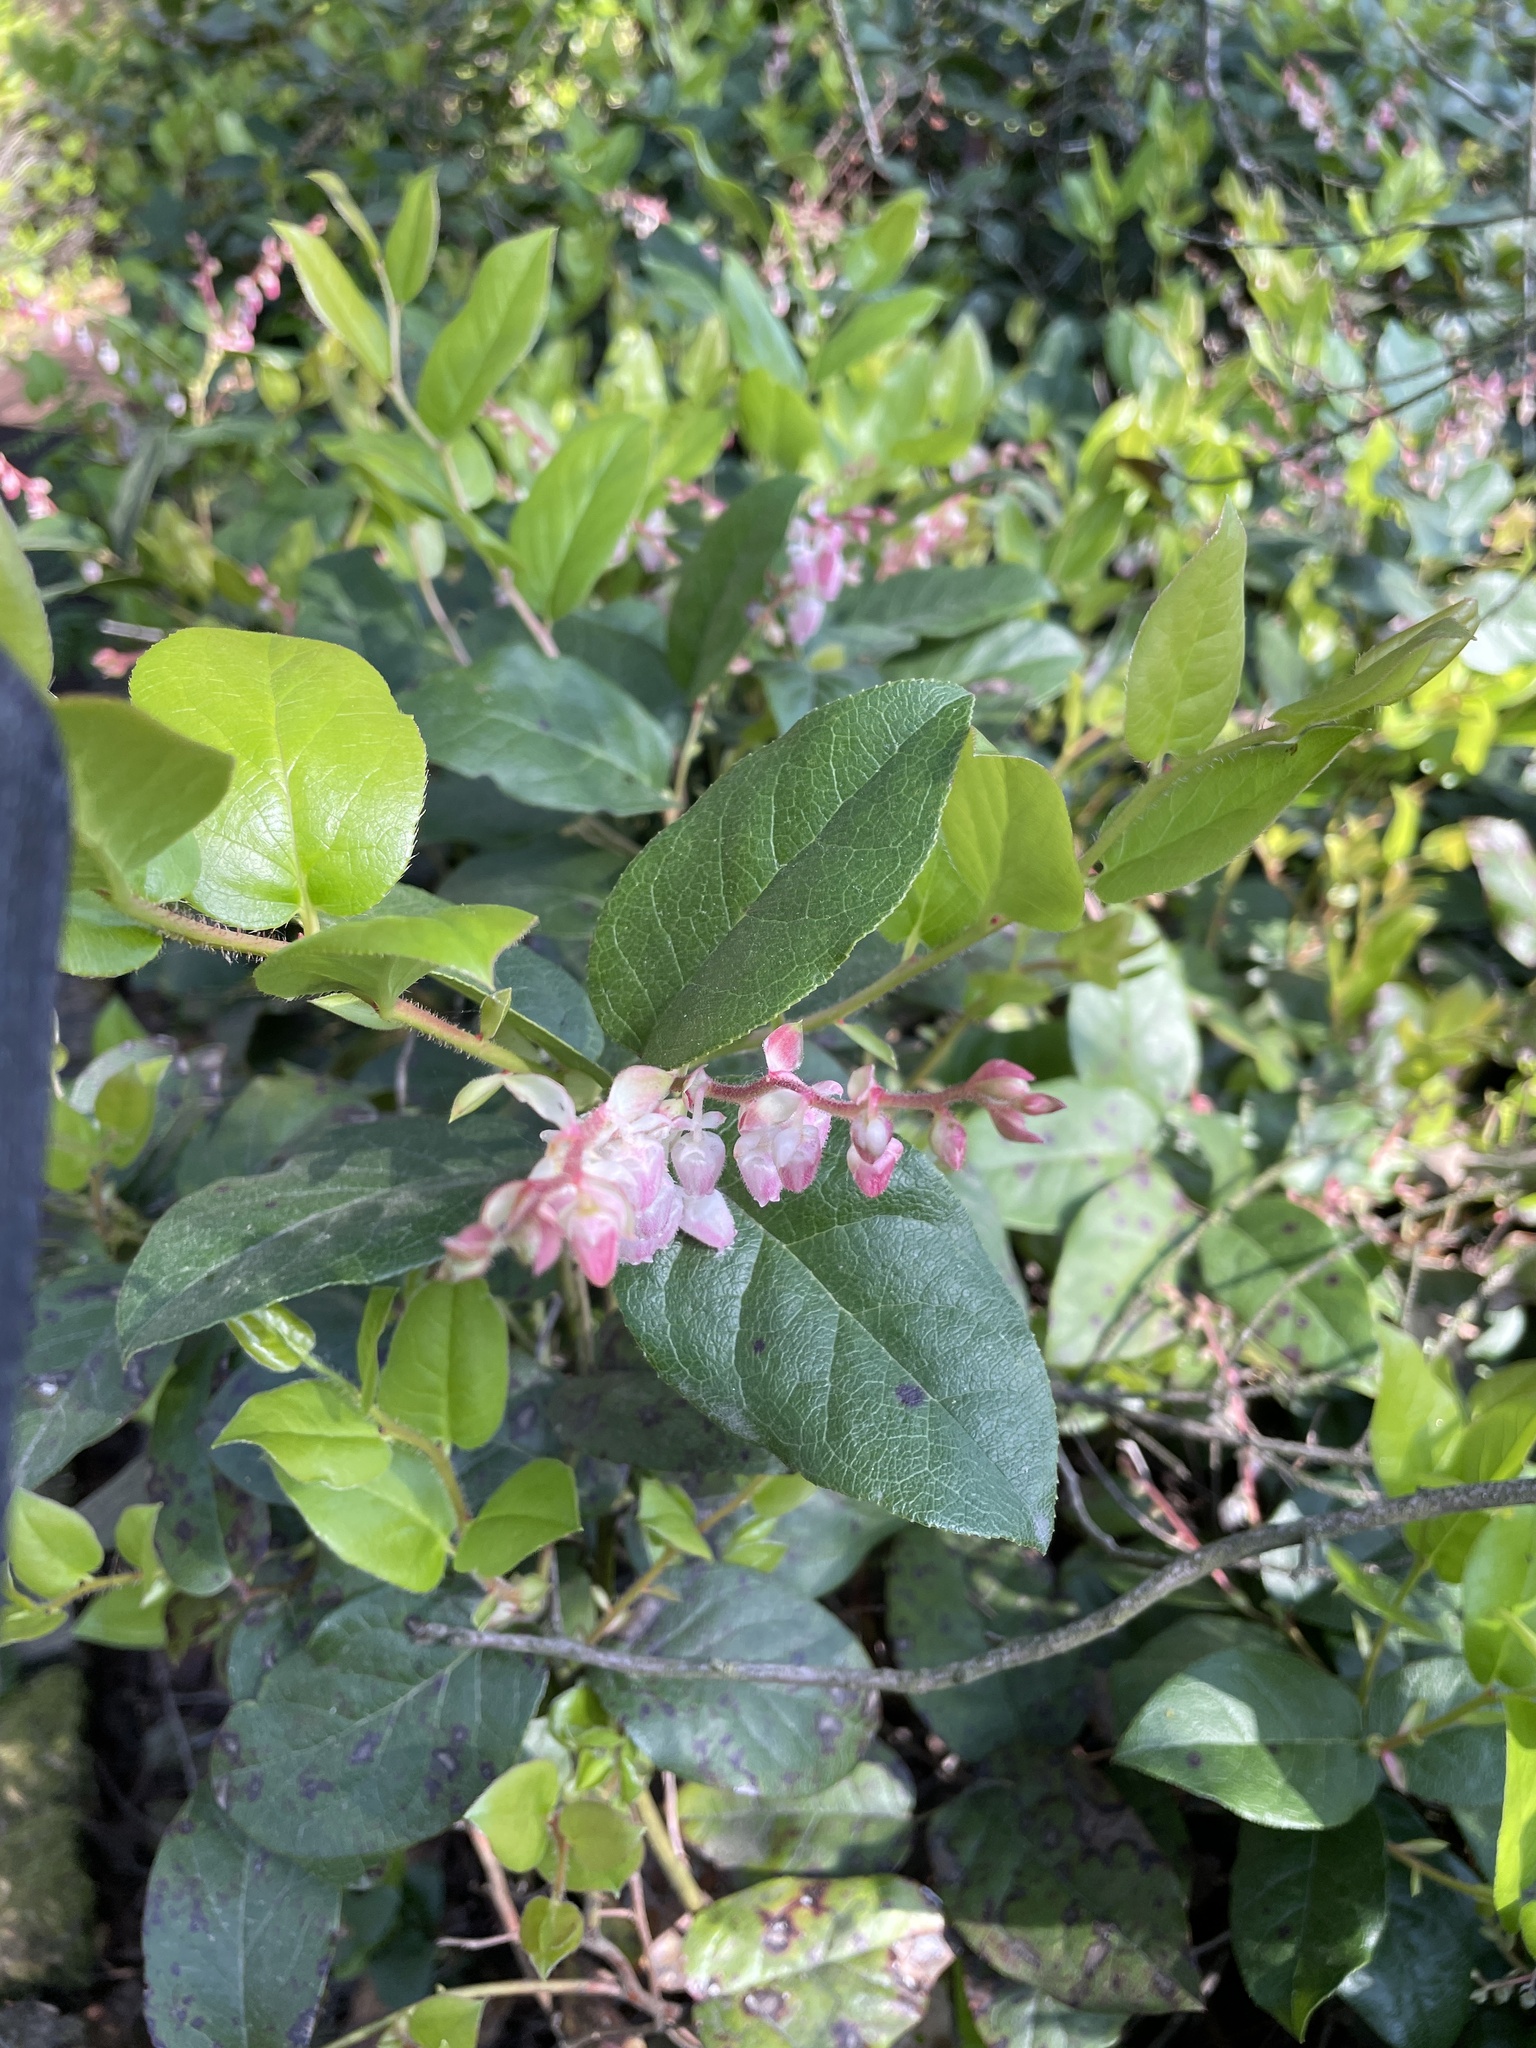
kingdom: Plantae
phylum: Tracheophyta
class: Magnoliopsida
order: Ericales
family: Ericaceae
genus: Gaultheria
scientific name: Gaultheria shallon
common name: Shallon
